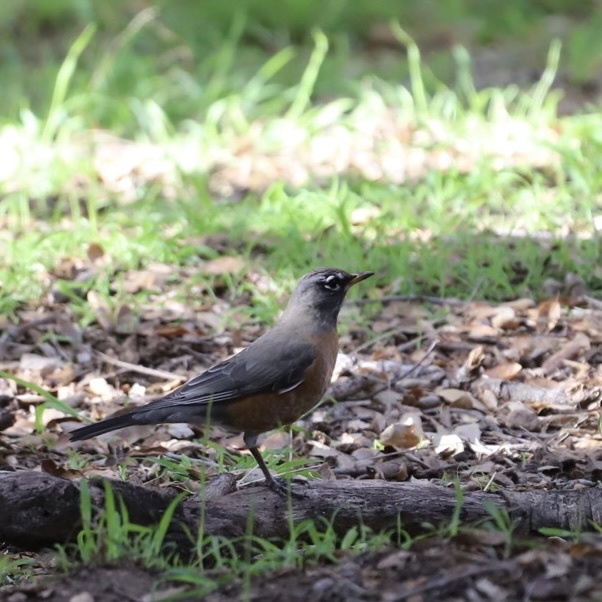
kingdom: Animalia
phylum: Chordata
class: Aves
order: Passeriformes
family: Turdidae
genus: Turdus
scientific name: Turdus migratorius
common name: American robin
